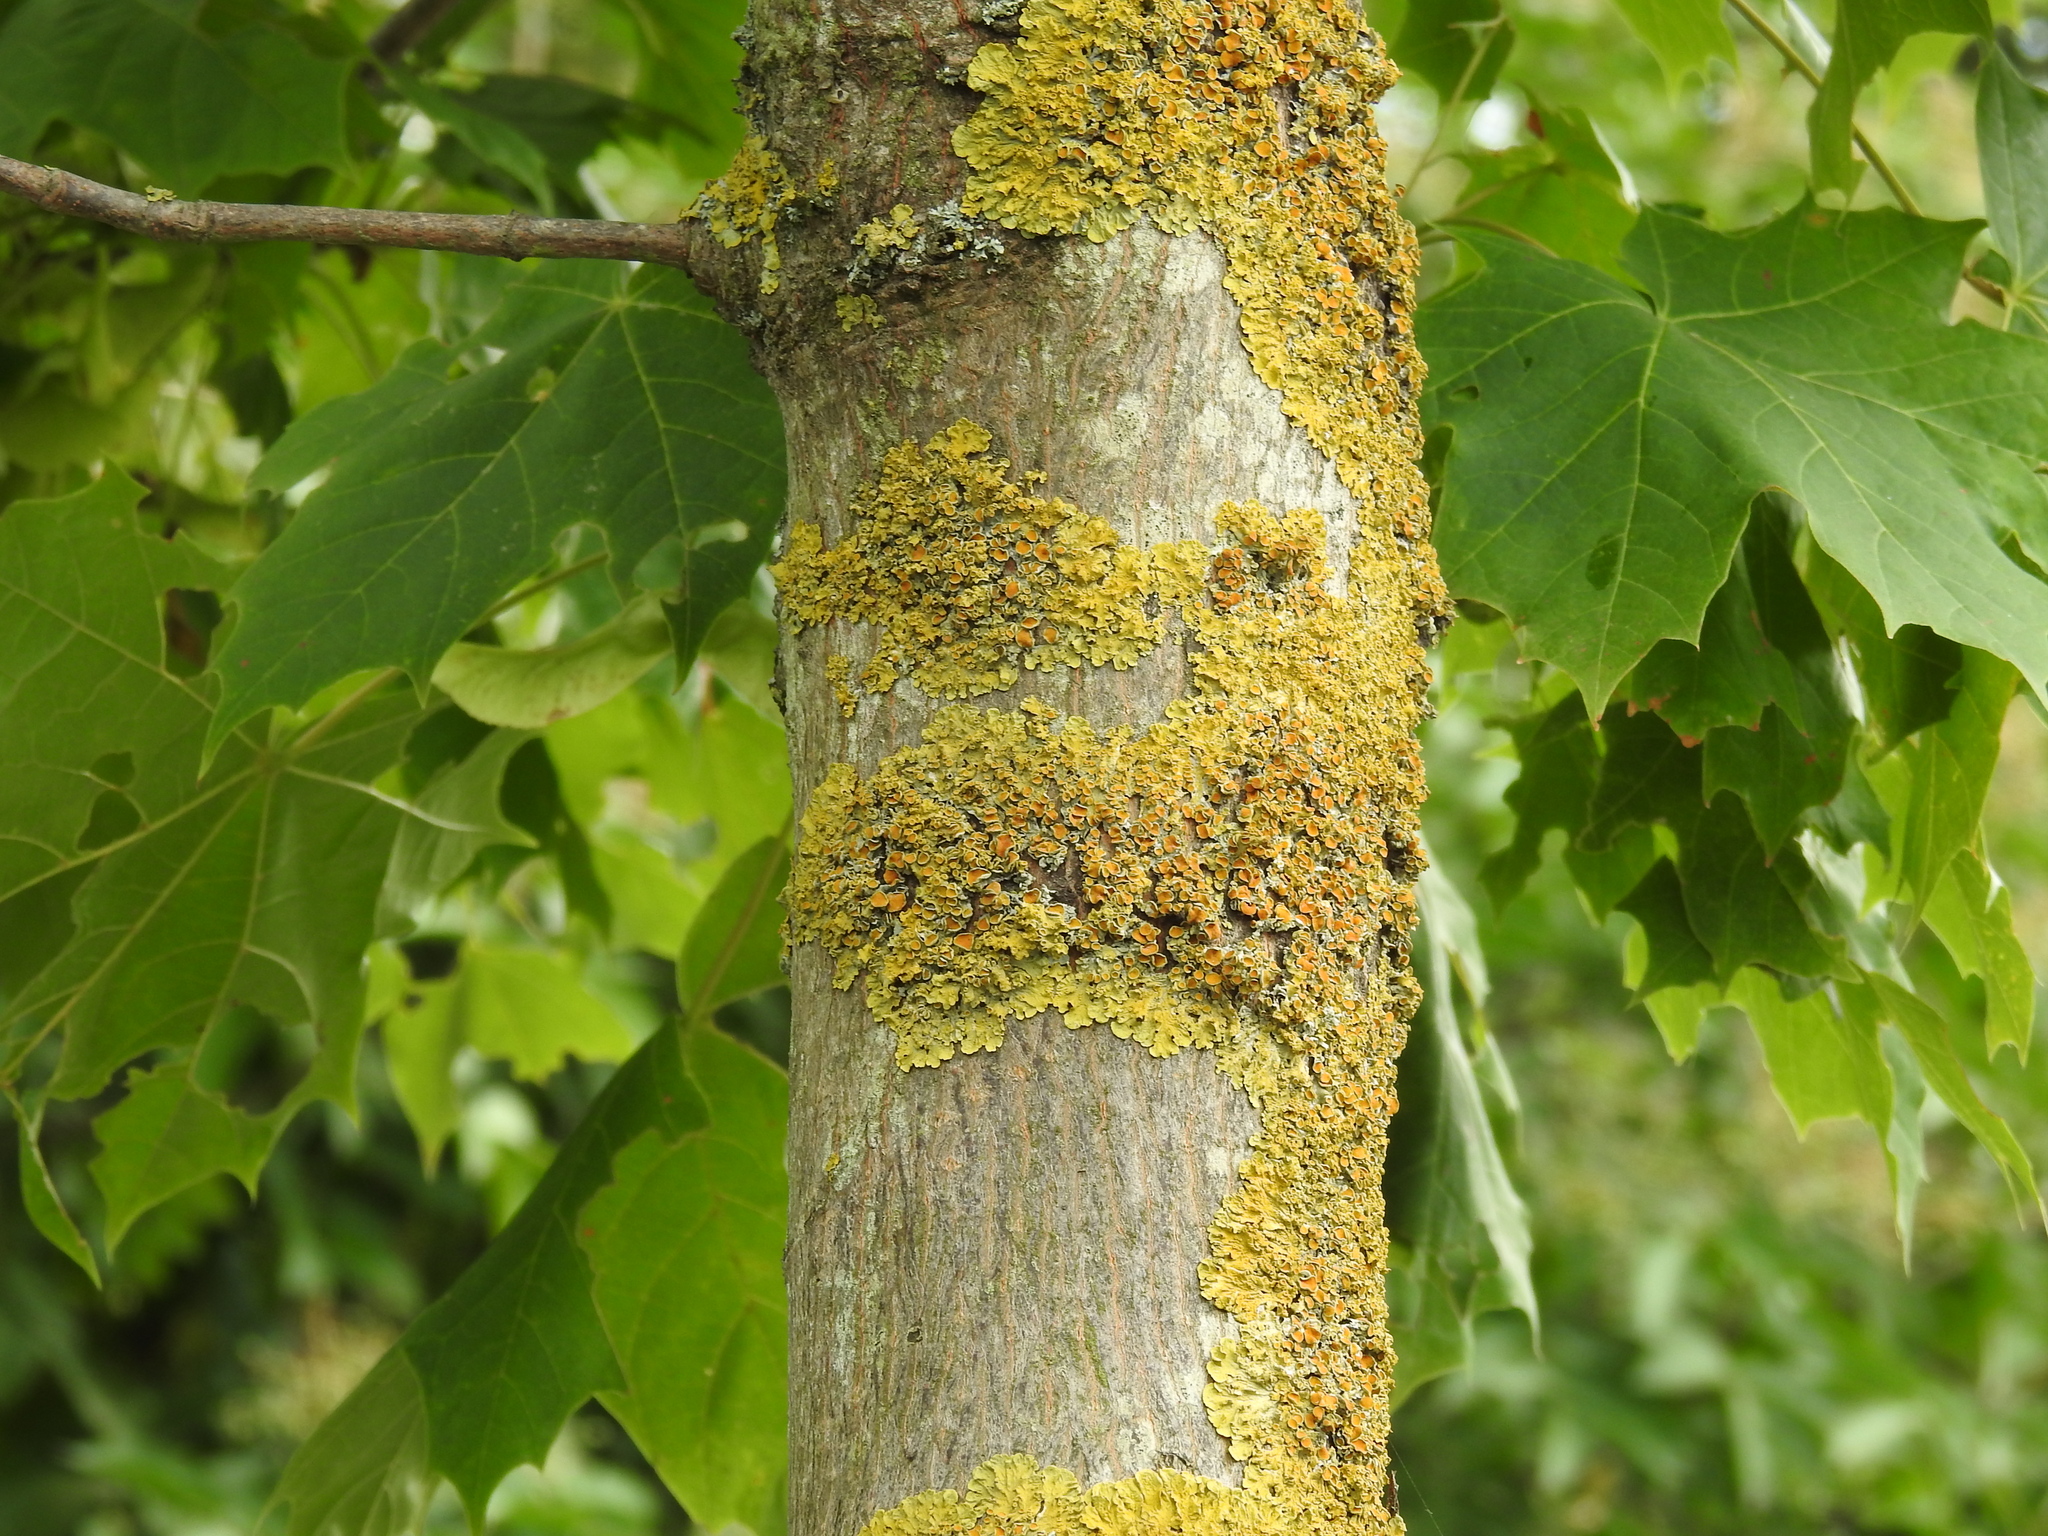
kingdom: Fungi
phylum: Ascomycota
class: Lecanoromycetes
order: Teloschistales
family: Teloschistaceae
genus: Xanthoria
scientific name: Xanthoria parietina
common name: Common orange lichen
